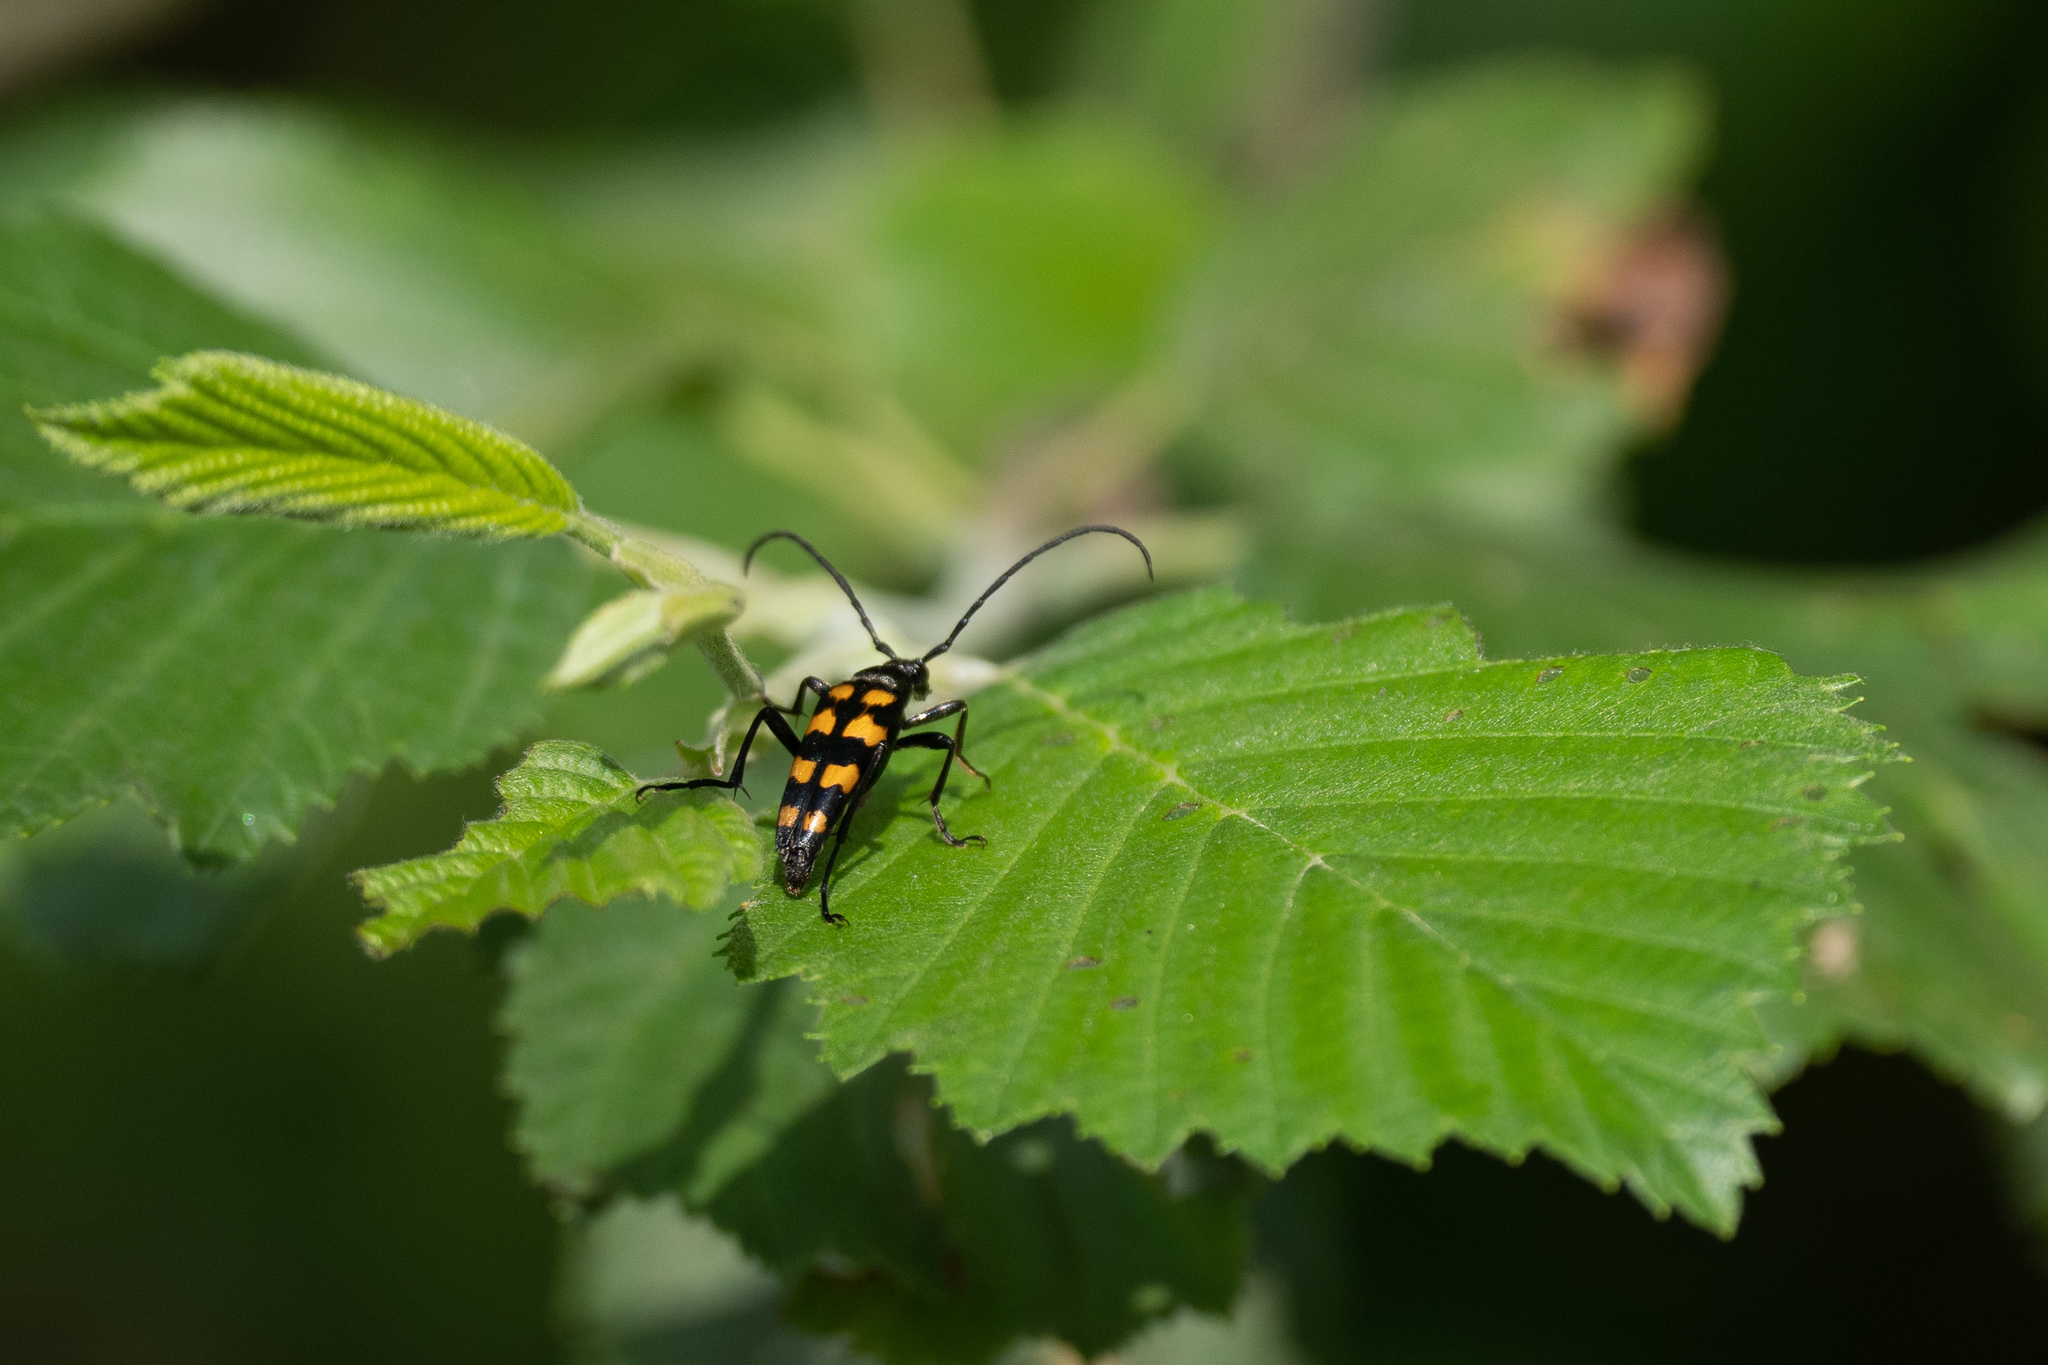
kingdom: Animalia
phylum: Arthropoda
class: Insecta
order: Coleoptera
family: Cerambycidae
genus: Leptura
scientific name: Leptura quadrifasciata
